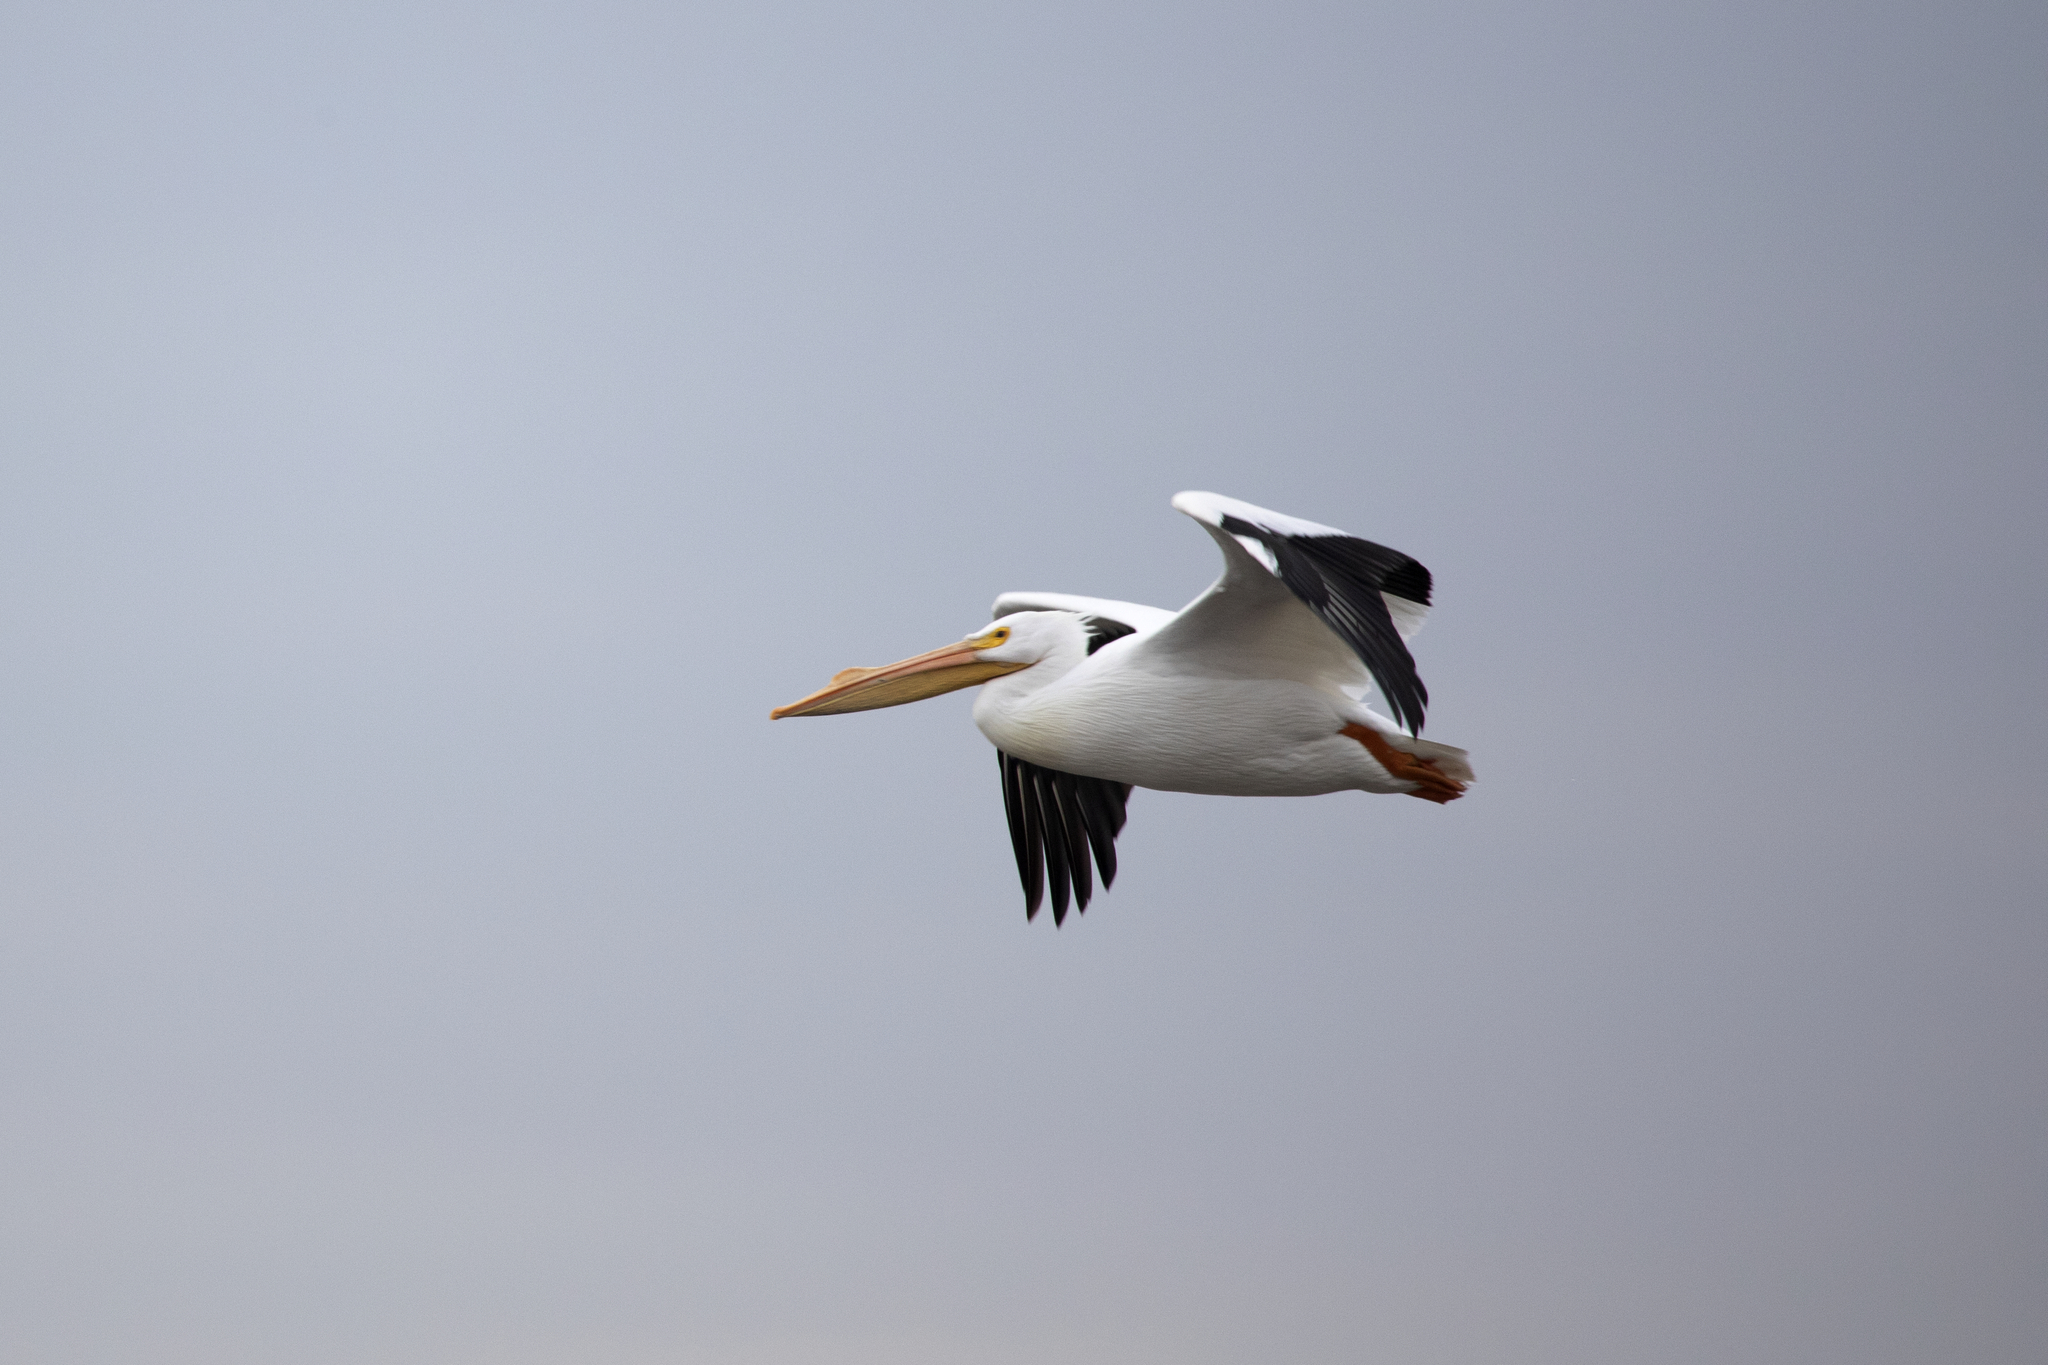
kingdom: Animalia
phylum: Chordata
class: Aves
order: Pelecaniformes
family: Pelecanidae
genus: Pelecanus
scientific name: Pelecanus erythrorhynchos
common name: American white pelican
